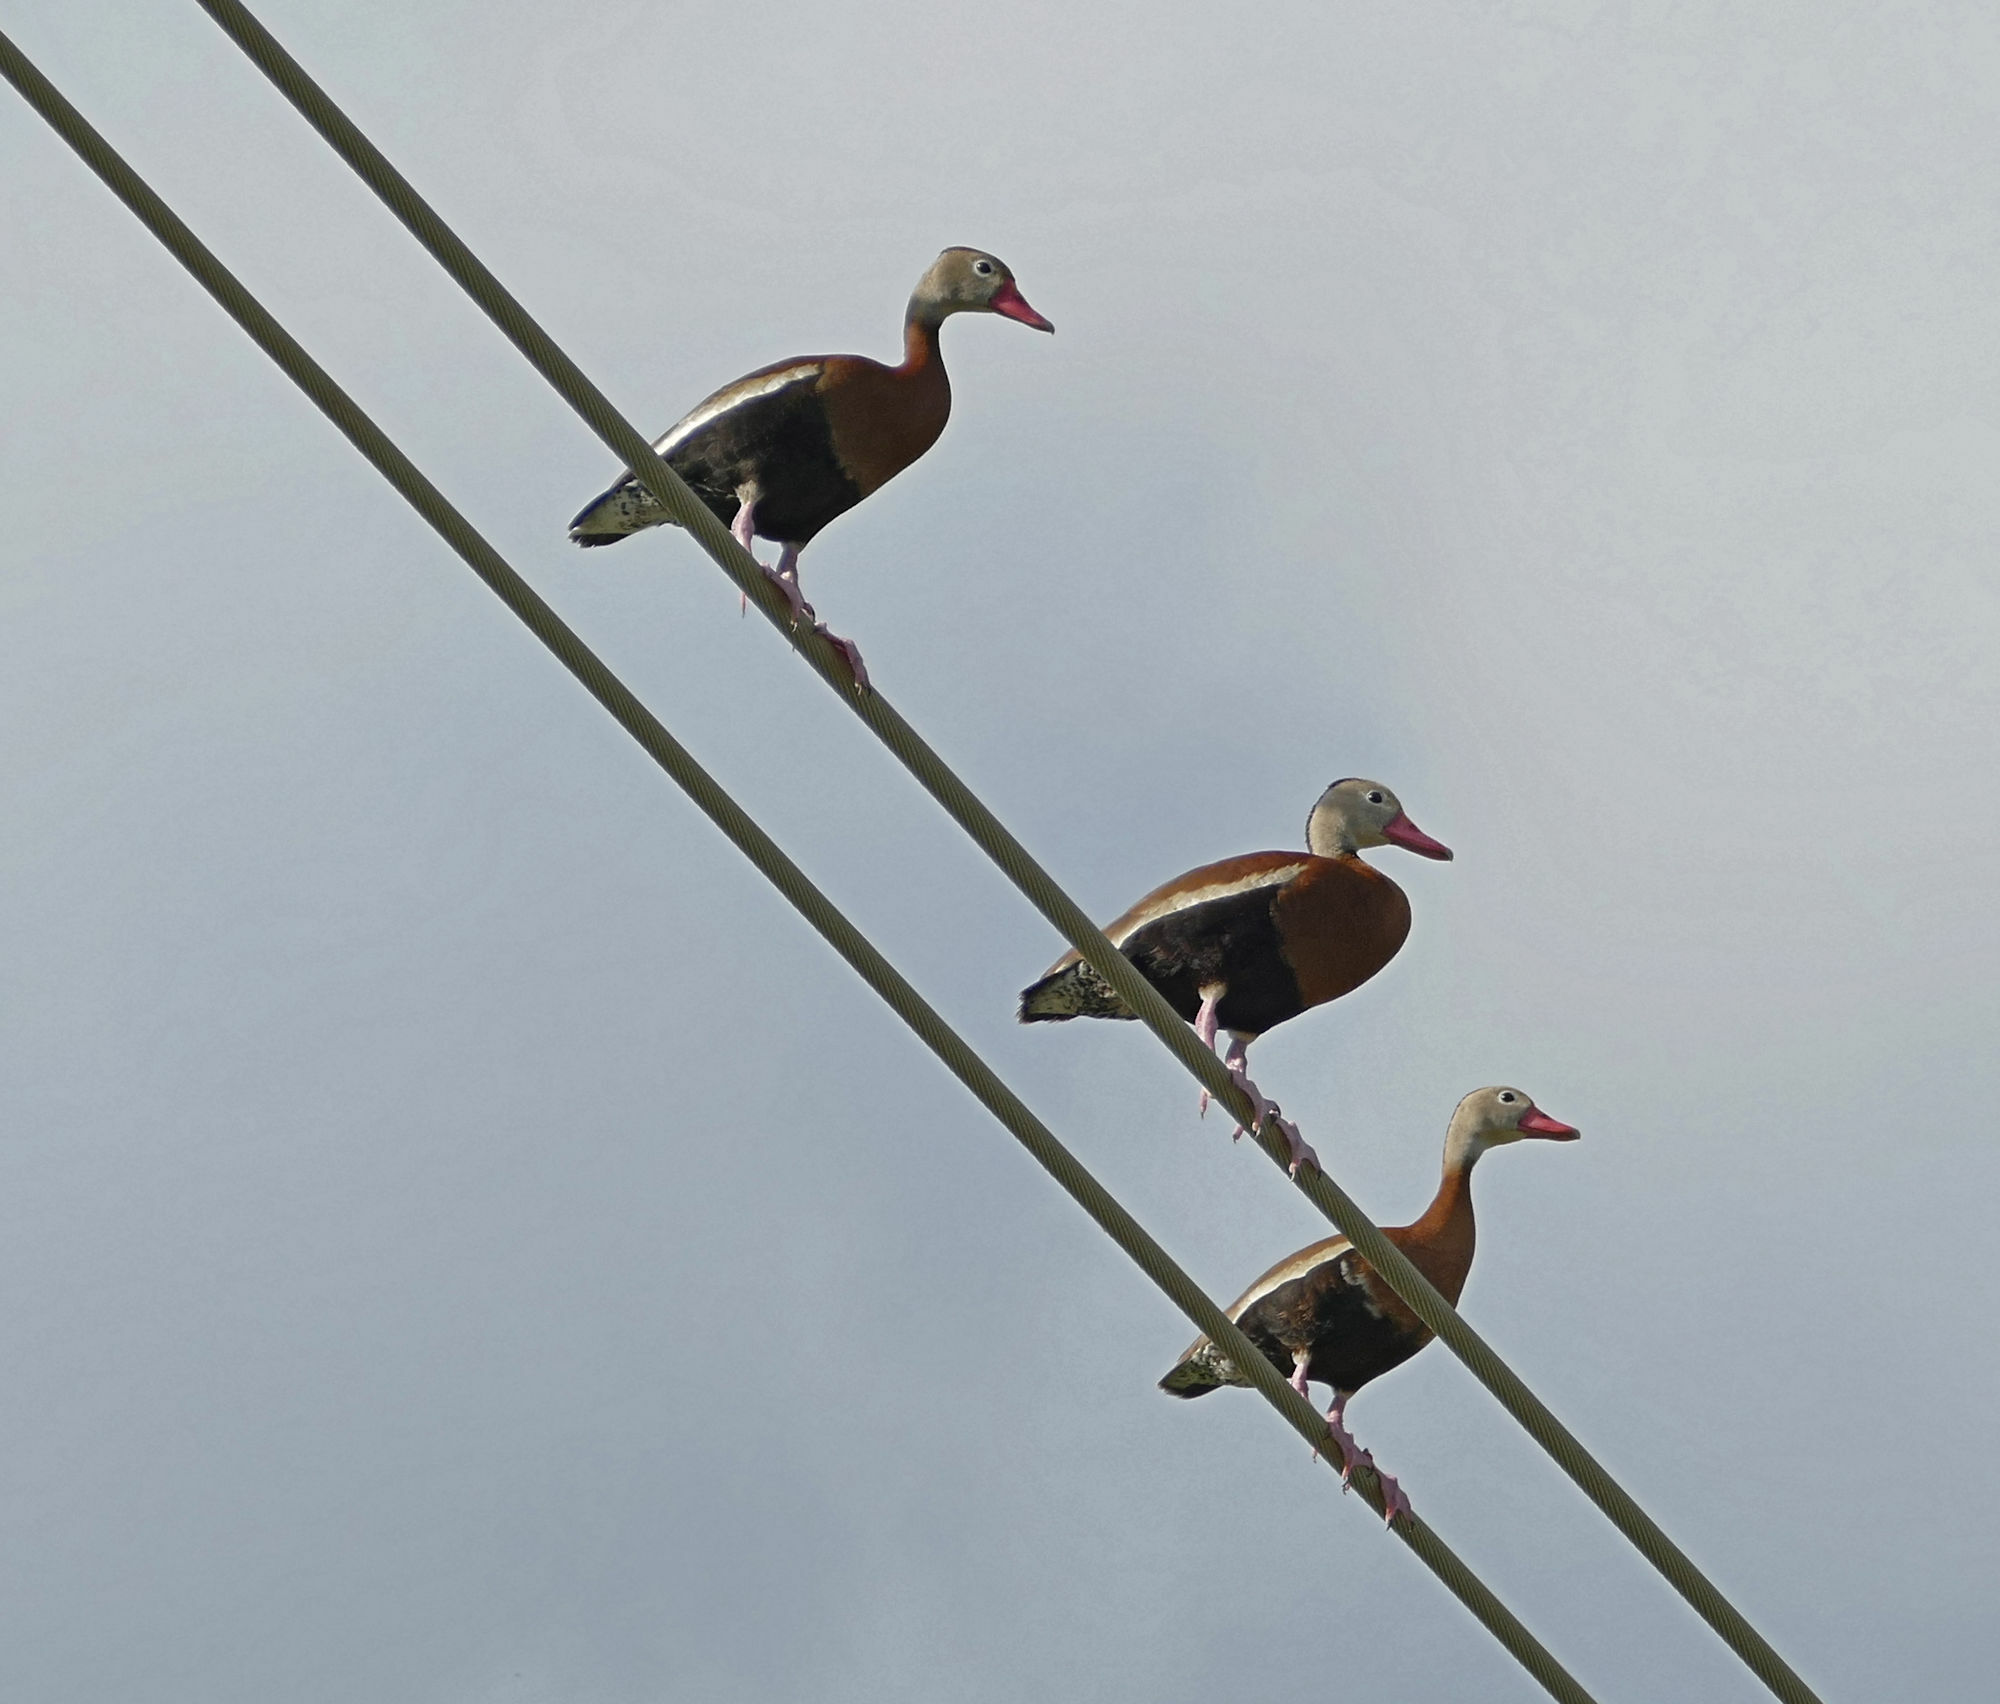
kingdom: Animalia
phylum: Chordata
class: Aves
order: Anseriformes
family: Anatidae
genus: Dendrocygna
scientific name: Dendrocygna autumnalis
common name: Black-bellied whistling duck
